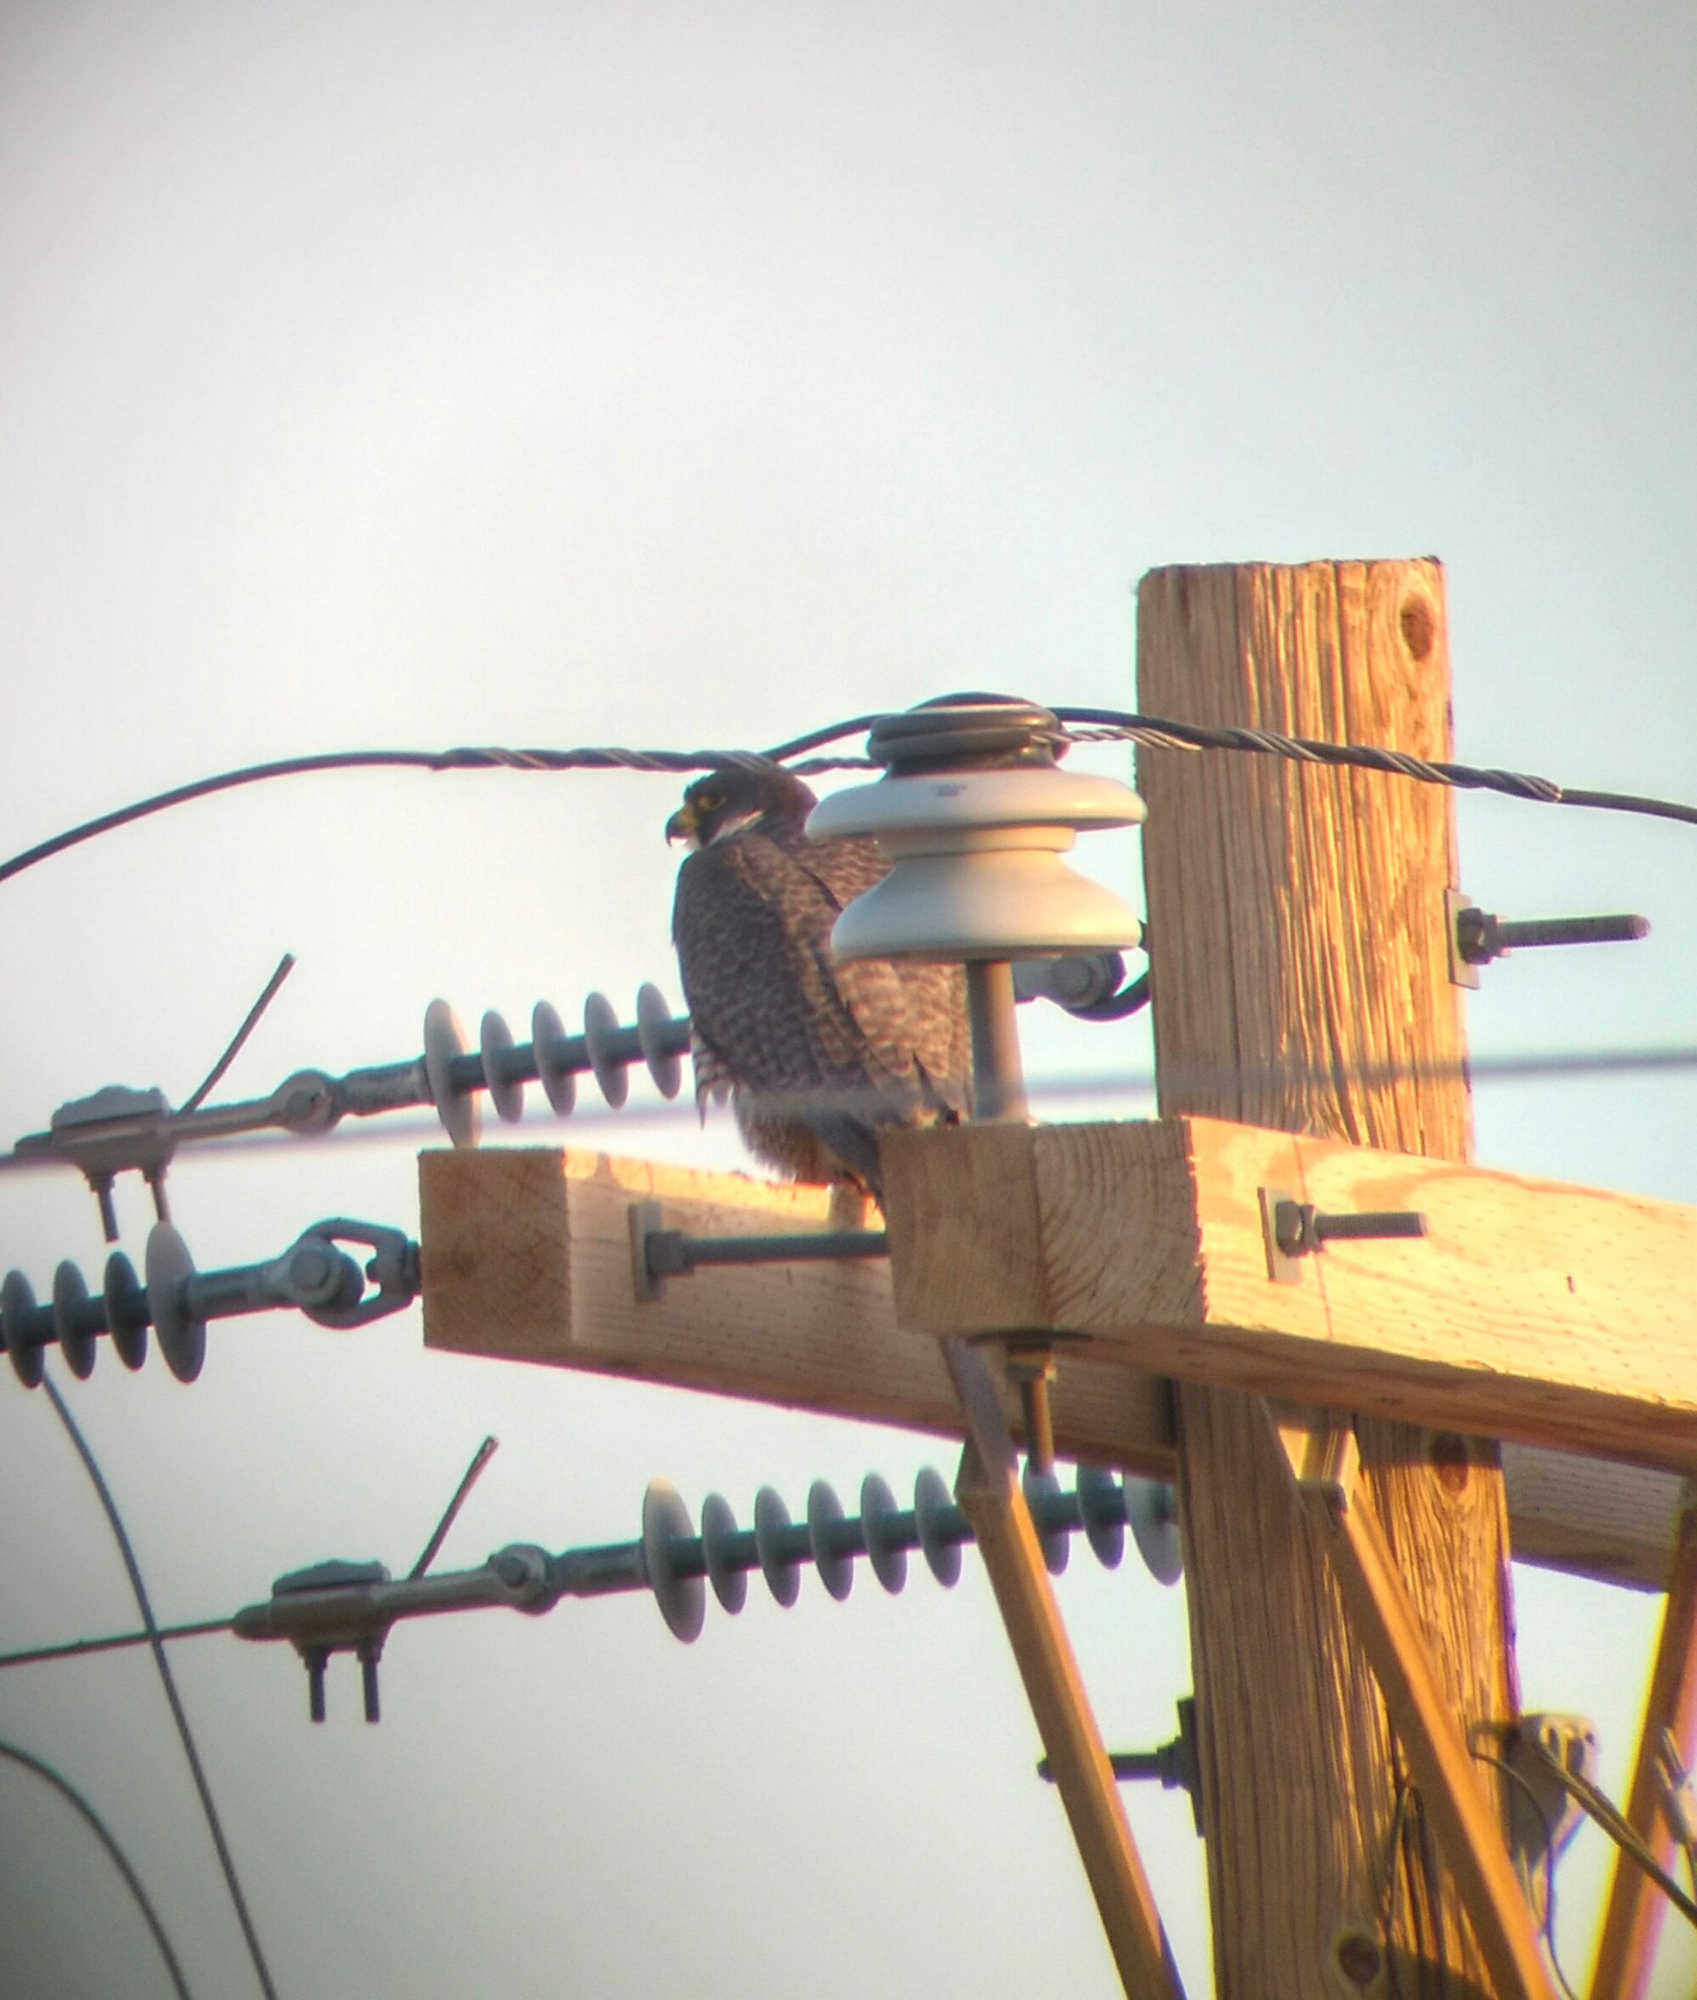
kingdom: Animalia
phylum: Chordata
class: Aves
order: Falconiformes
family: Falconidae
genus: Falco
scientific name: Falco peregrinus
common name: Peregrine falcon
